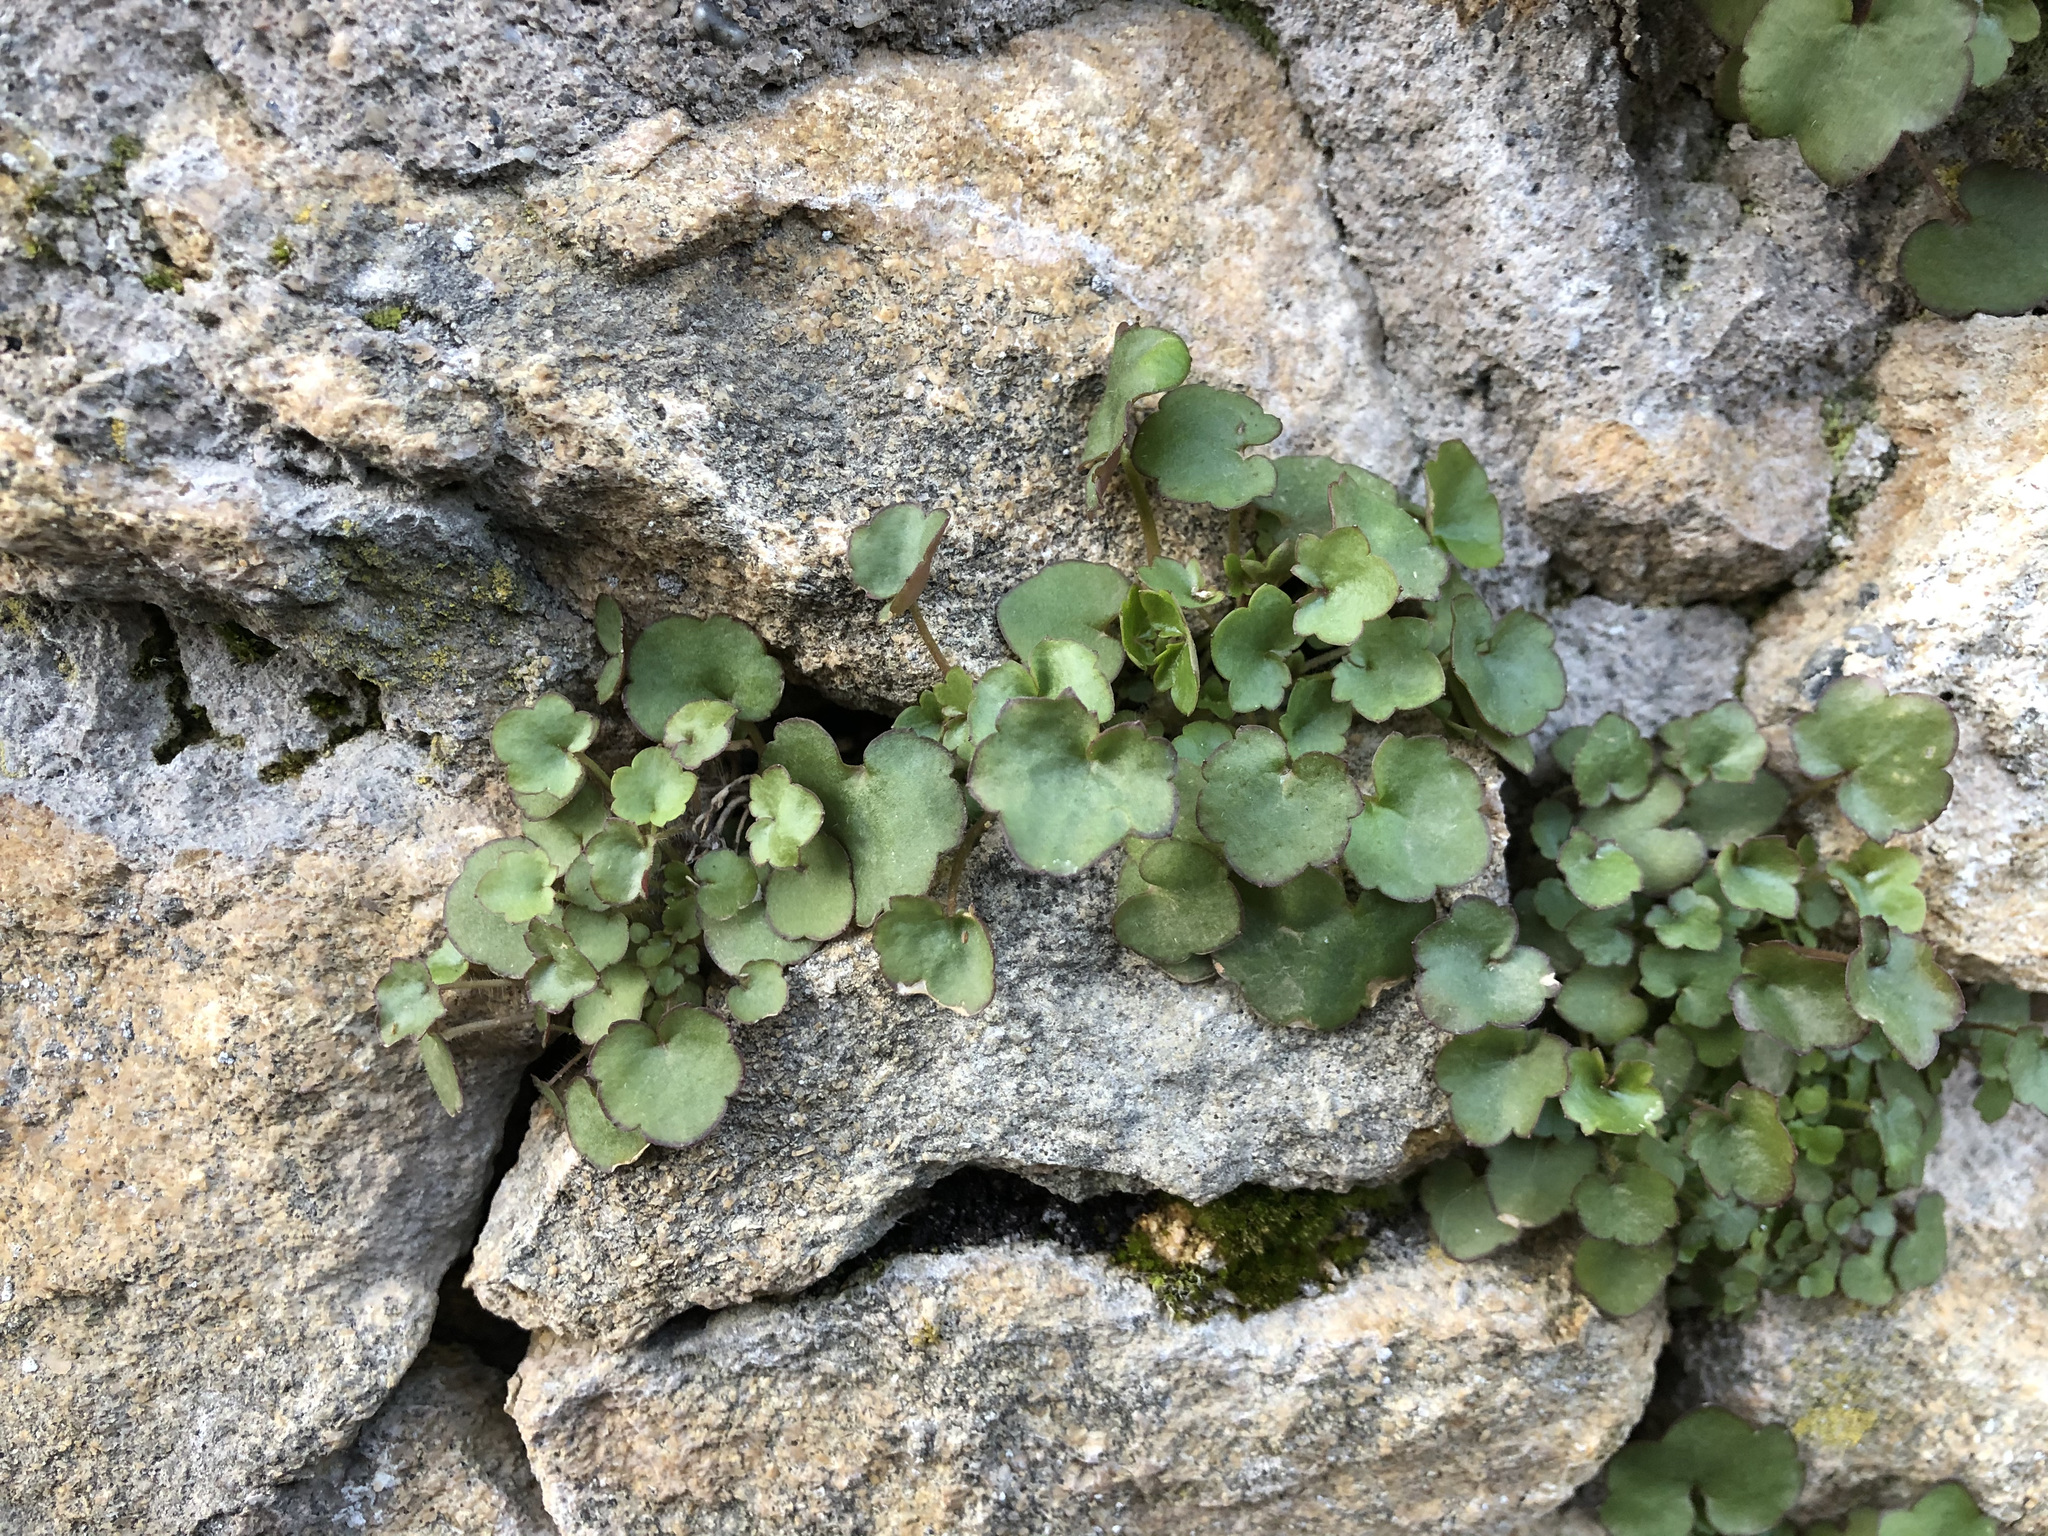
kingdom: Plantae
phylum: Tracheophyta
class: Magnoliopsida
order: Lamiales
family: Plantaginaceae
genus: Cymbalaria
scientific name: Cymbalaria muralis
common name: Ivy-leaved toadflax
